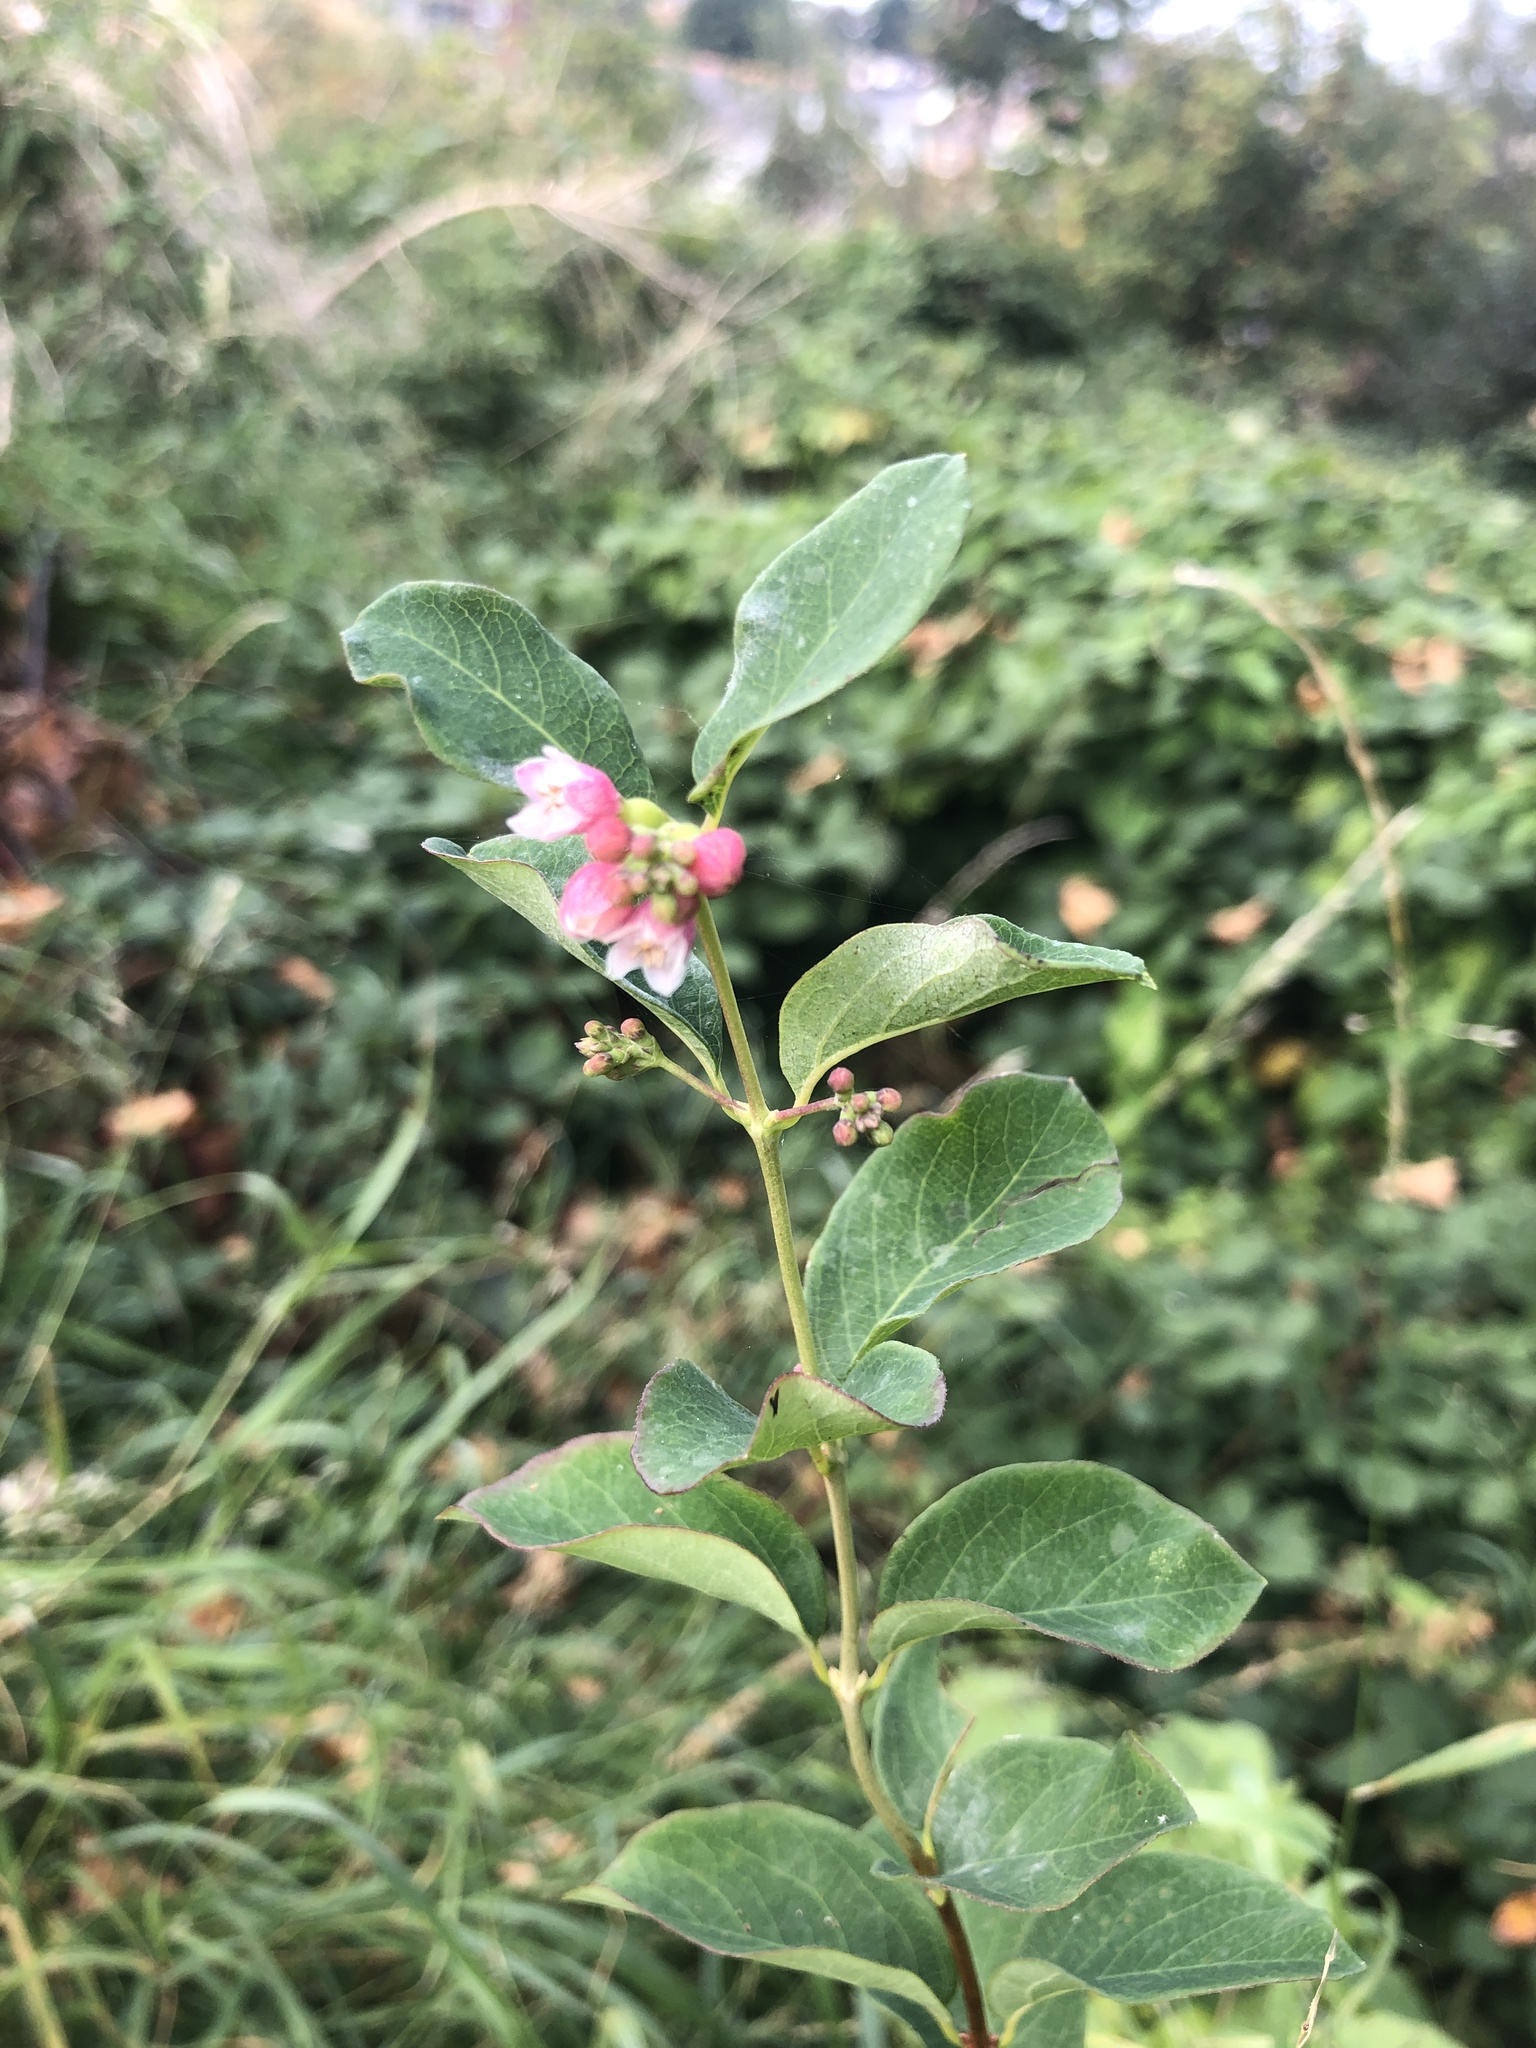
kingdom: Plantae
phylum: Tracheophyta
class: Magnoliopsida
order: Dipsacales
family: Caprifoliaceae
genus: Symphoricarpos
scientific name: Symphoricarpos albus
